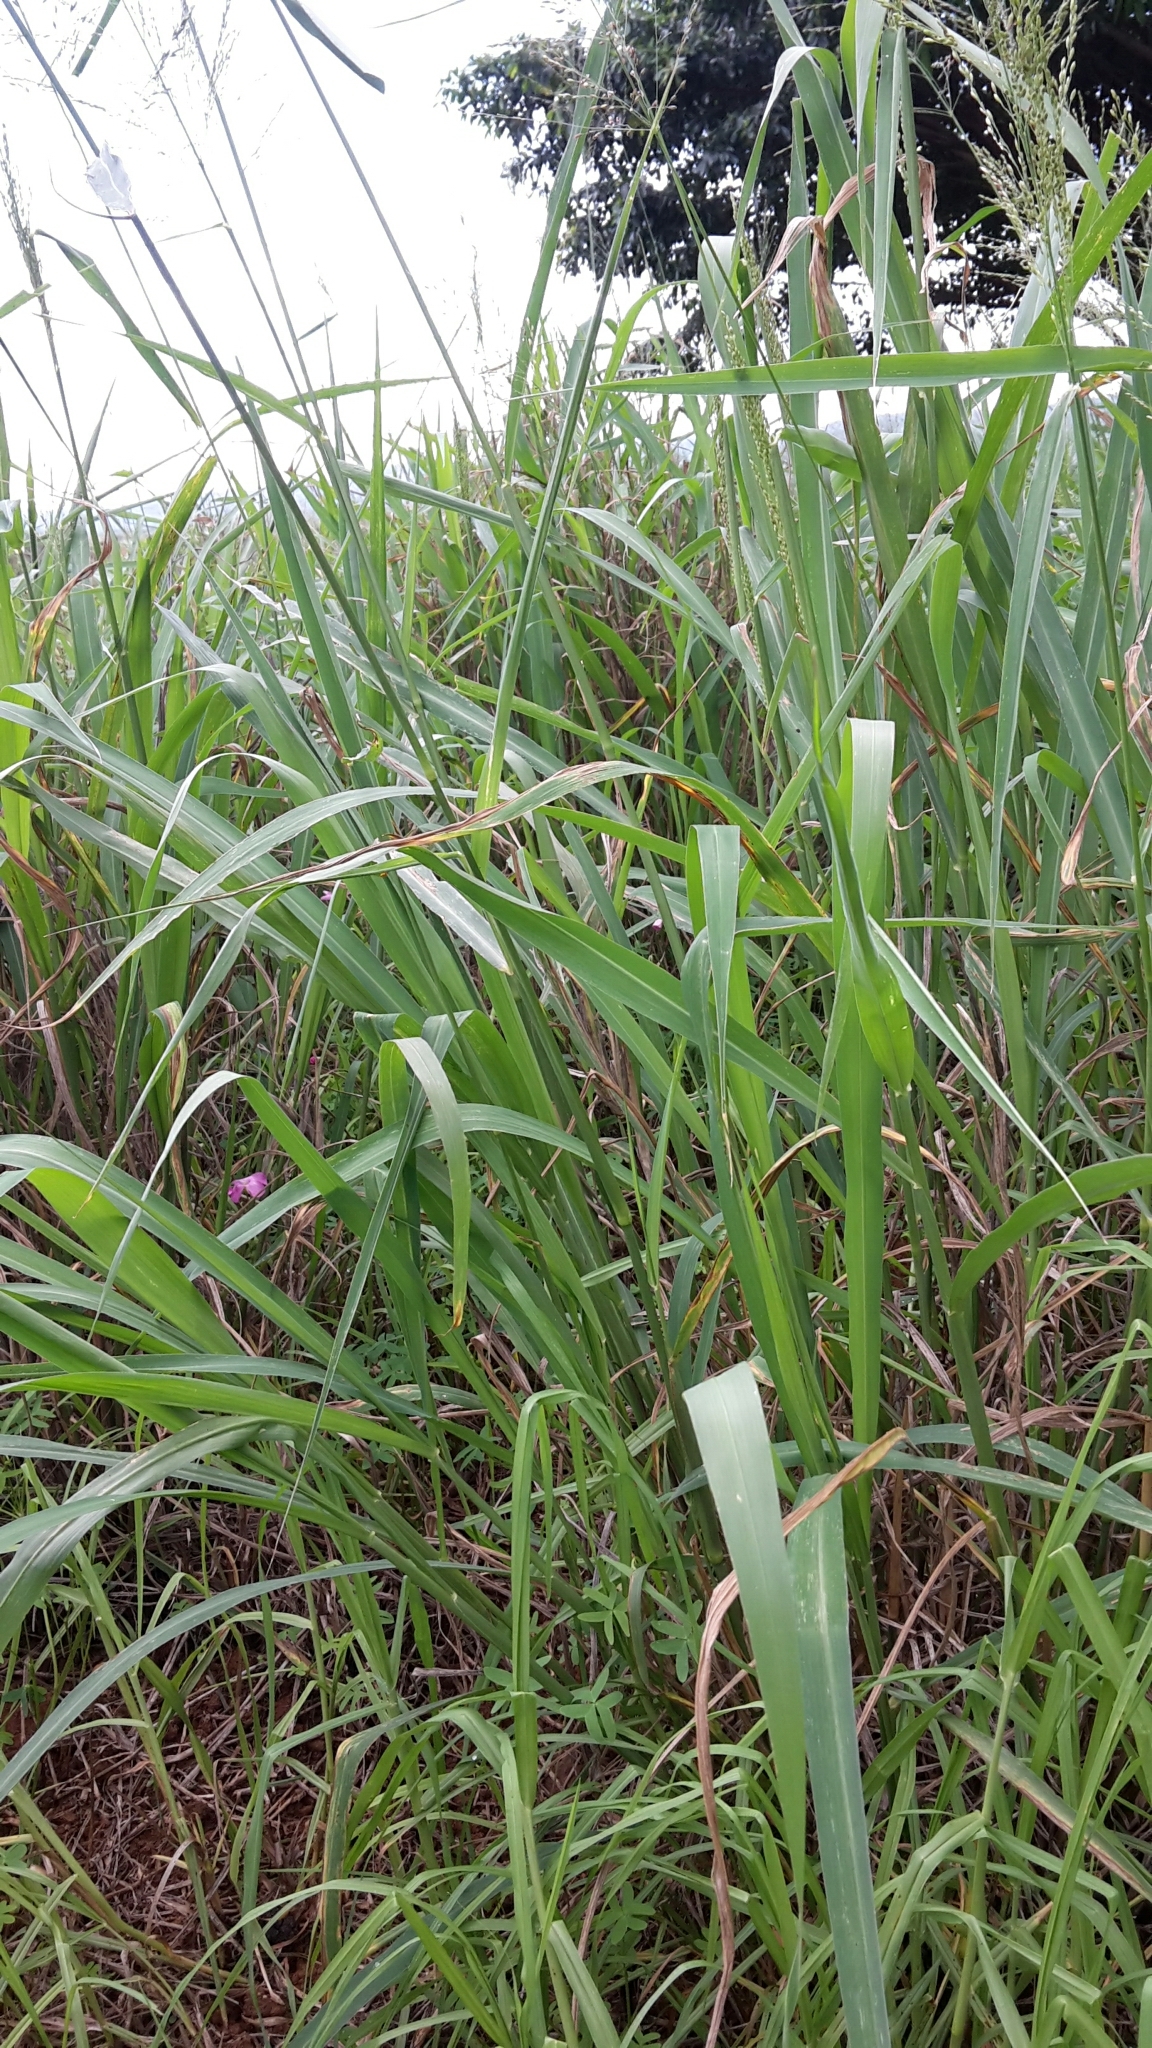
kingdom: Plantae
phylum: Tracheophyta
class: Liliopsida
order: Poales
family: Poaceae
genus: Megathyrsus
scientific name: Megathyrsus maximus
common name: Guineagrass
